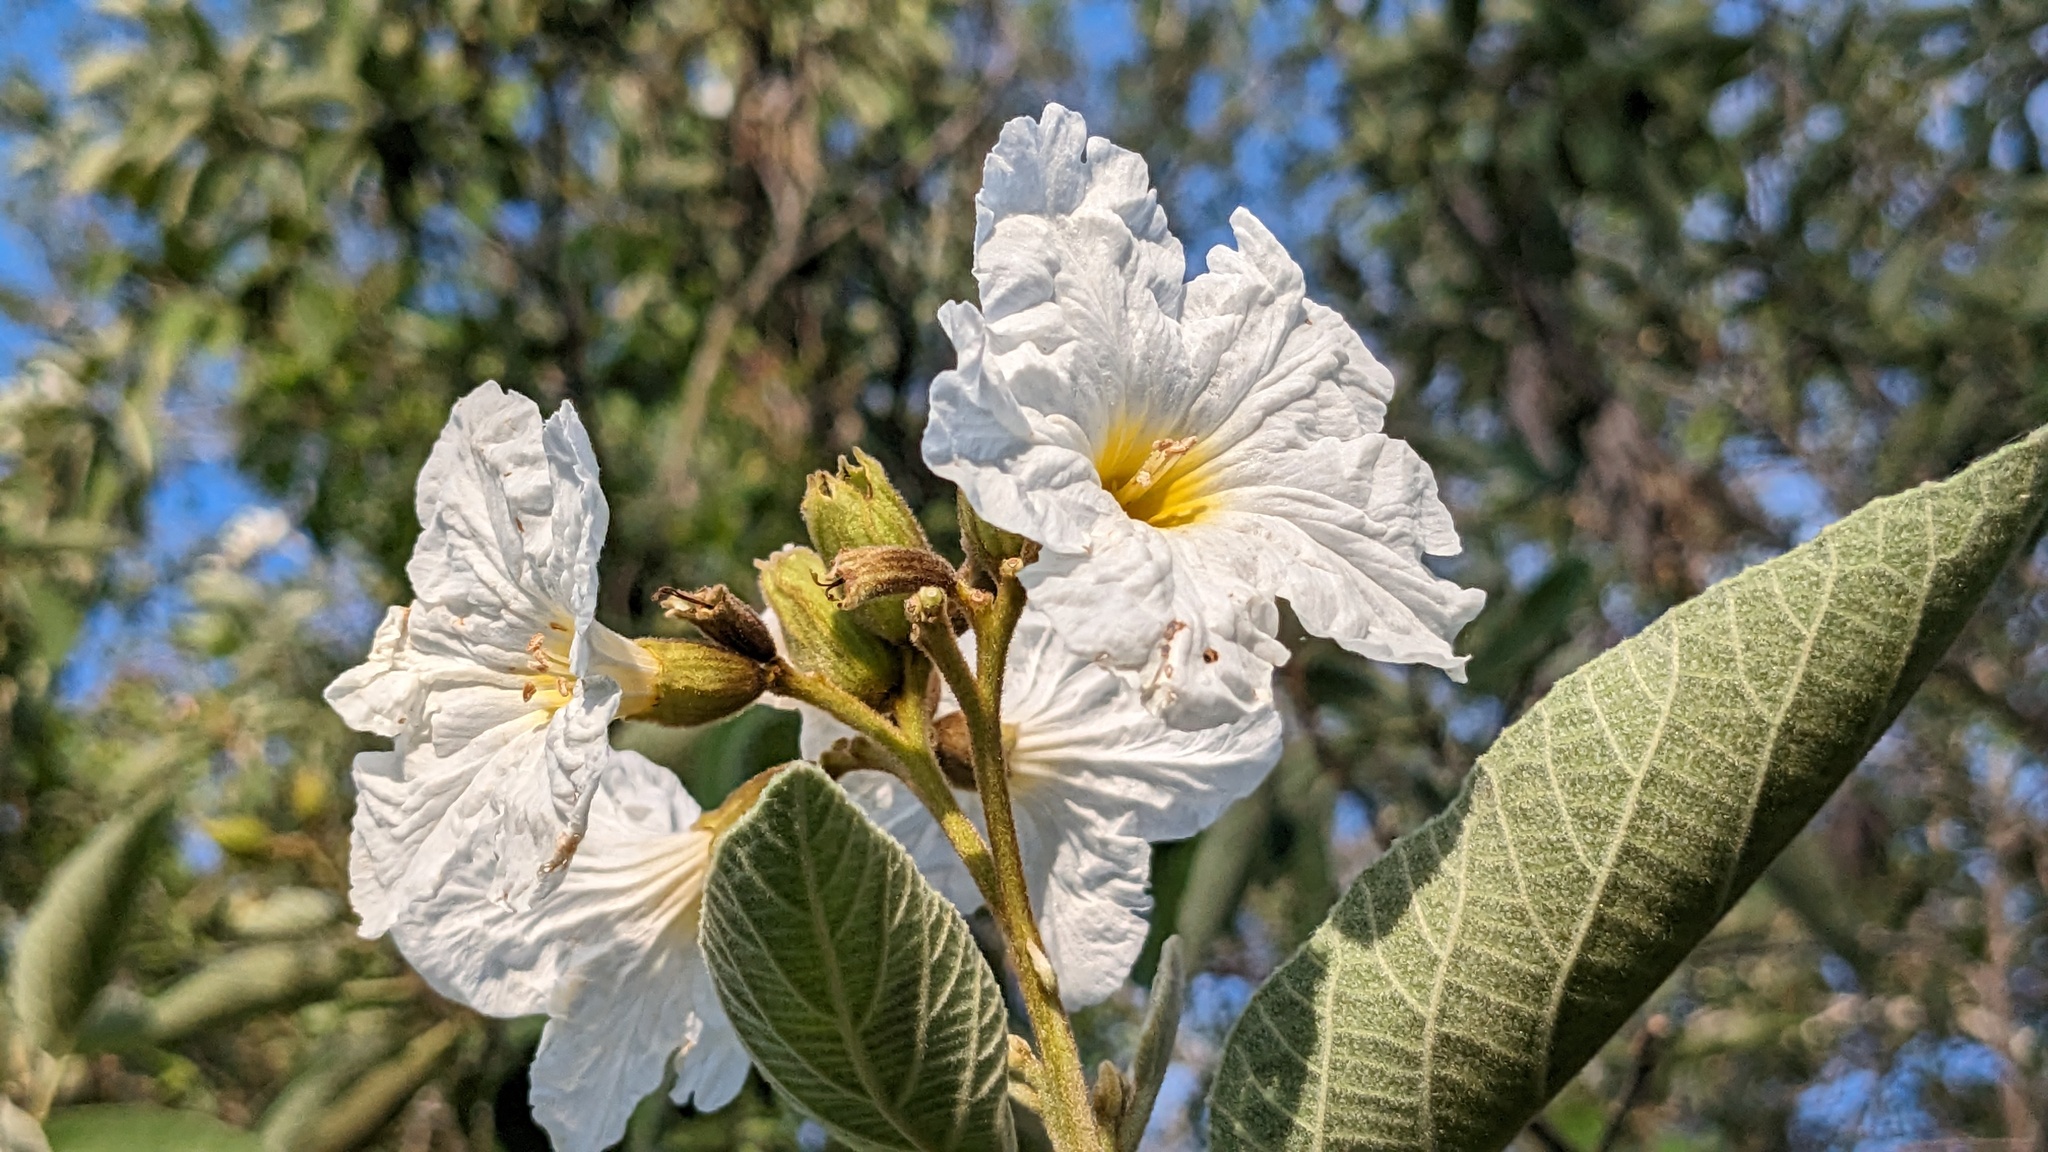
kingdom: Plantae
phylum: Tracheophyta
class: Magnoliopsida
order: Boraginales
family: Cordiaceae
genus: Cordia
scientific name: Cordia boissieri
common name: Mexican-olive
